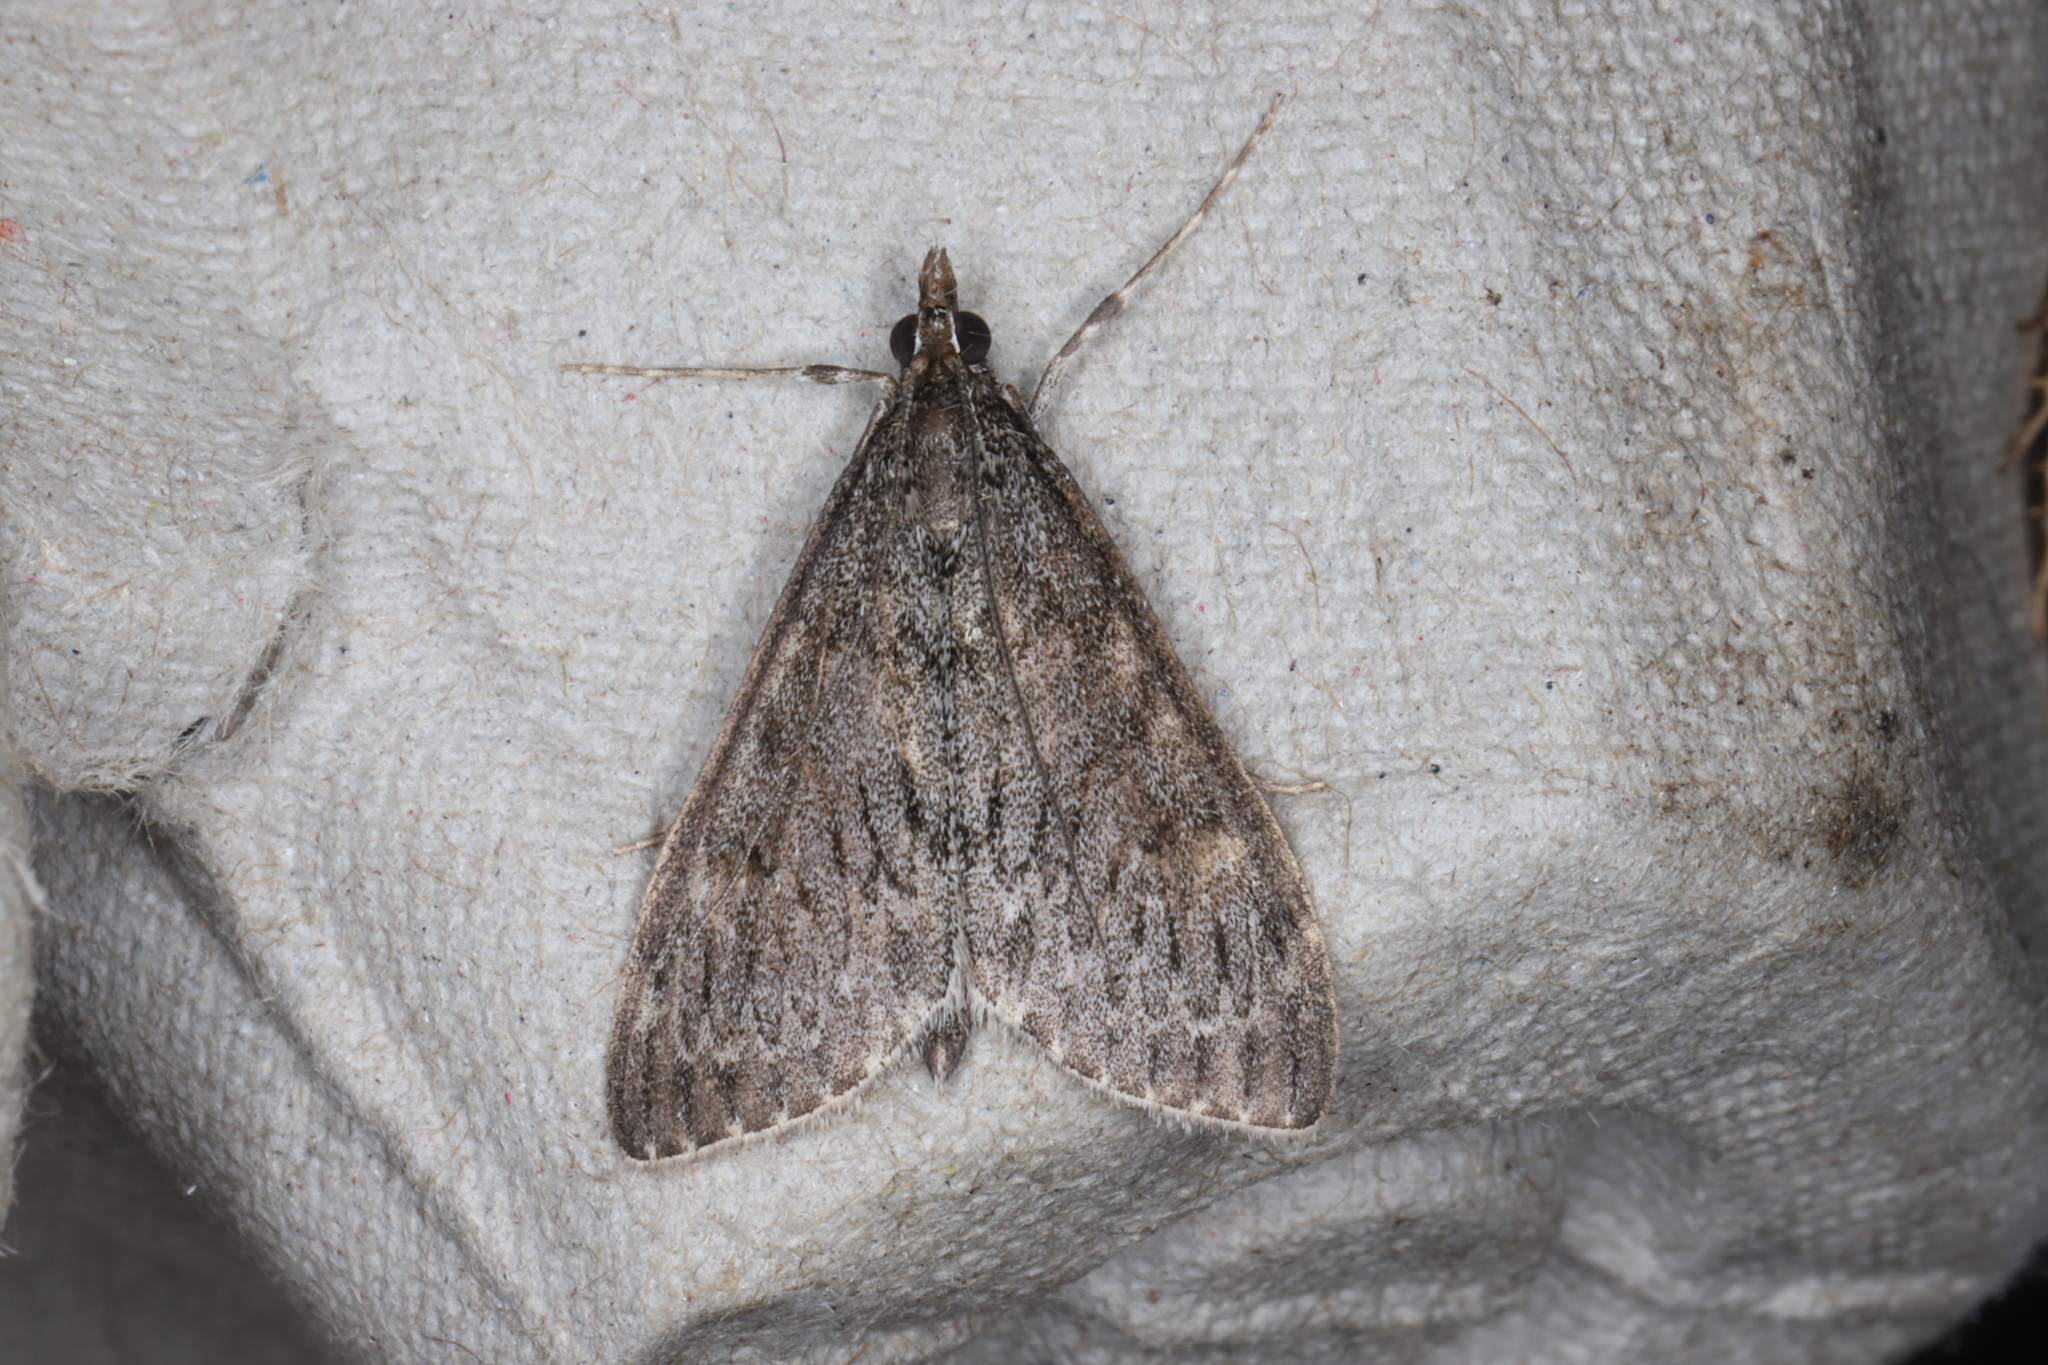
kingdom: Animalia
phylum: Arthropoda
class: Insecta
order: Lepidoptera
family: Crambidae
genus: Saucrobotys
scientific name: Saucrobotys fumoferalis
